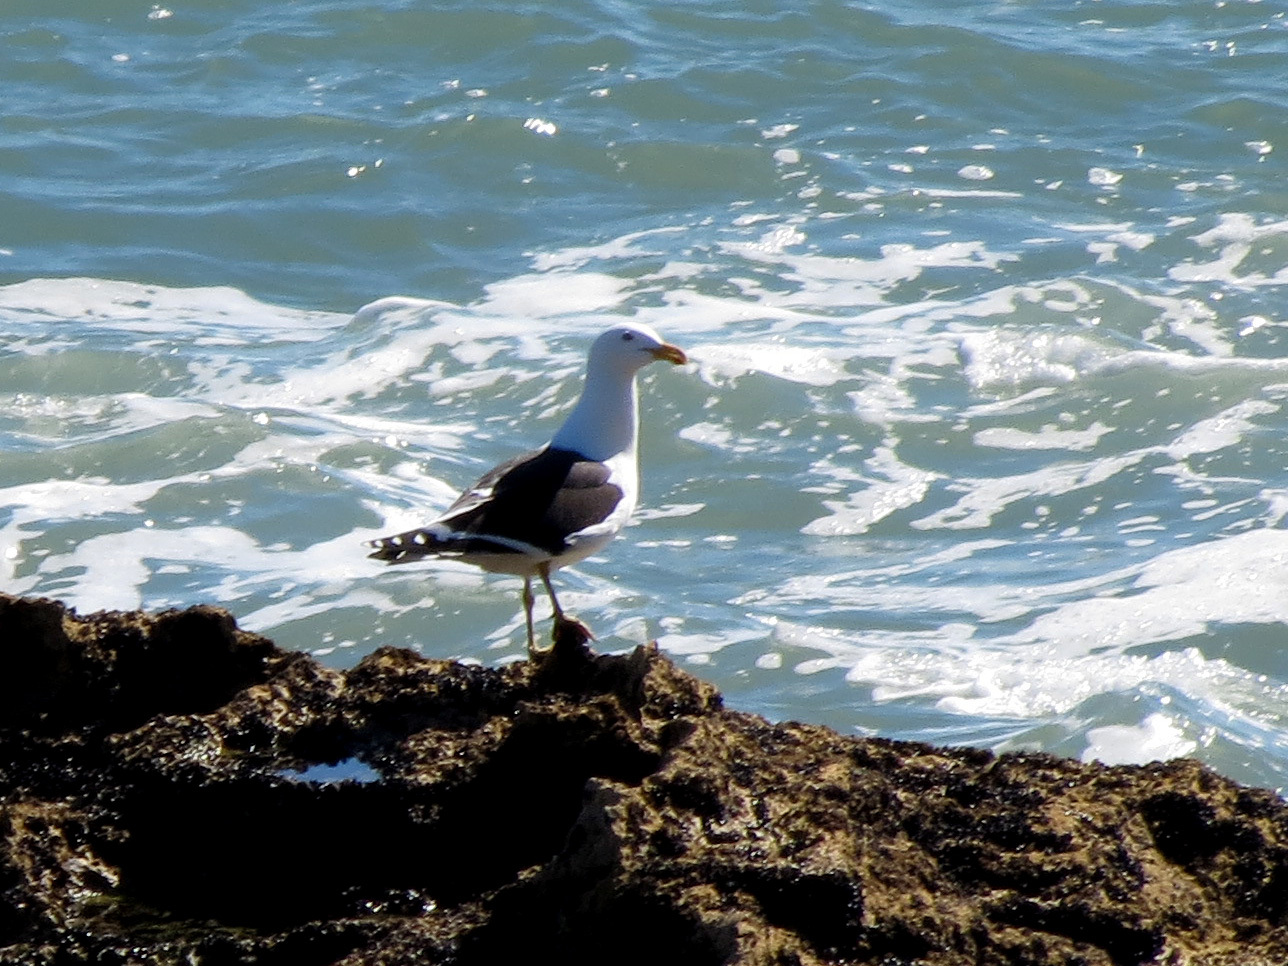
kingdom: Animalia
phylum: Chordata
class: Aves
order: Charadriiformes
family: Laridae
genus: Larus
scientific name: Larus dominicanus
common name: Kelp gull
